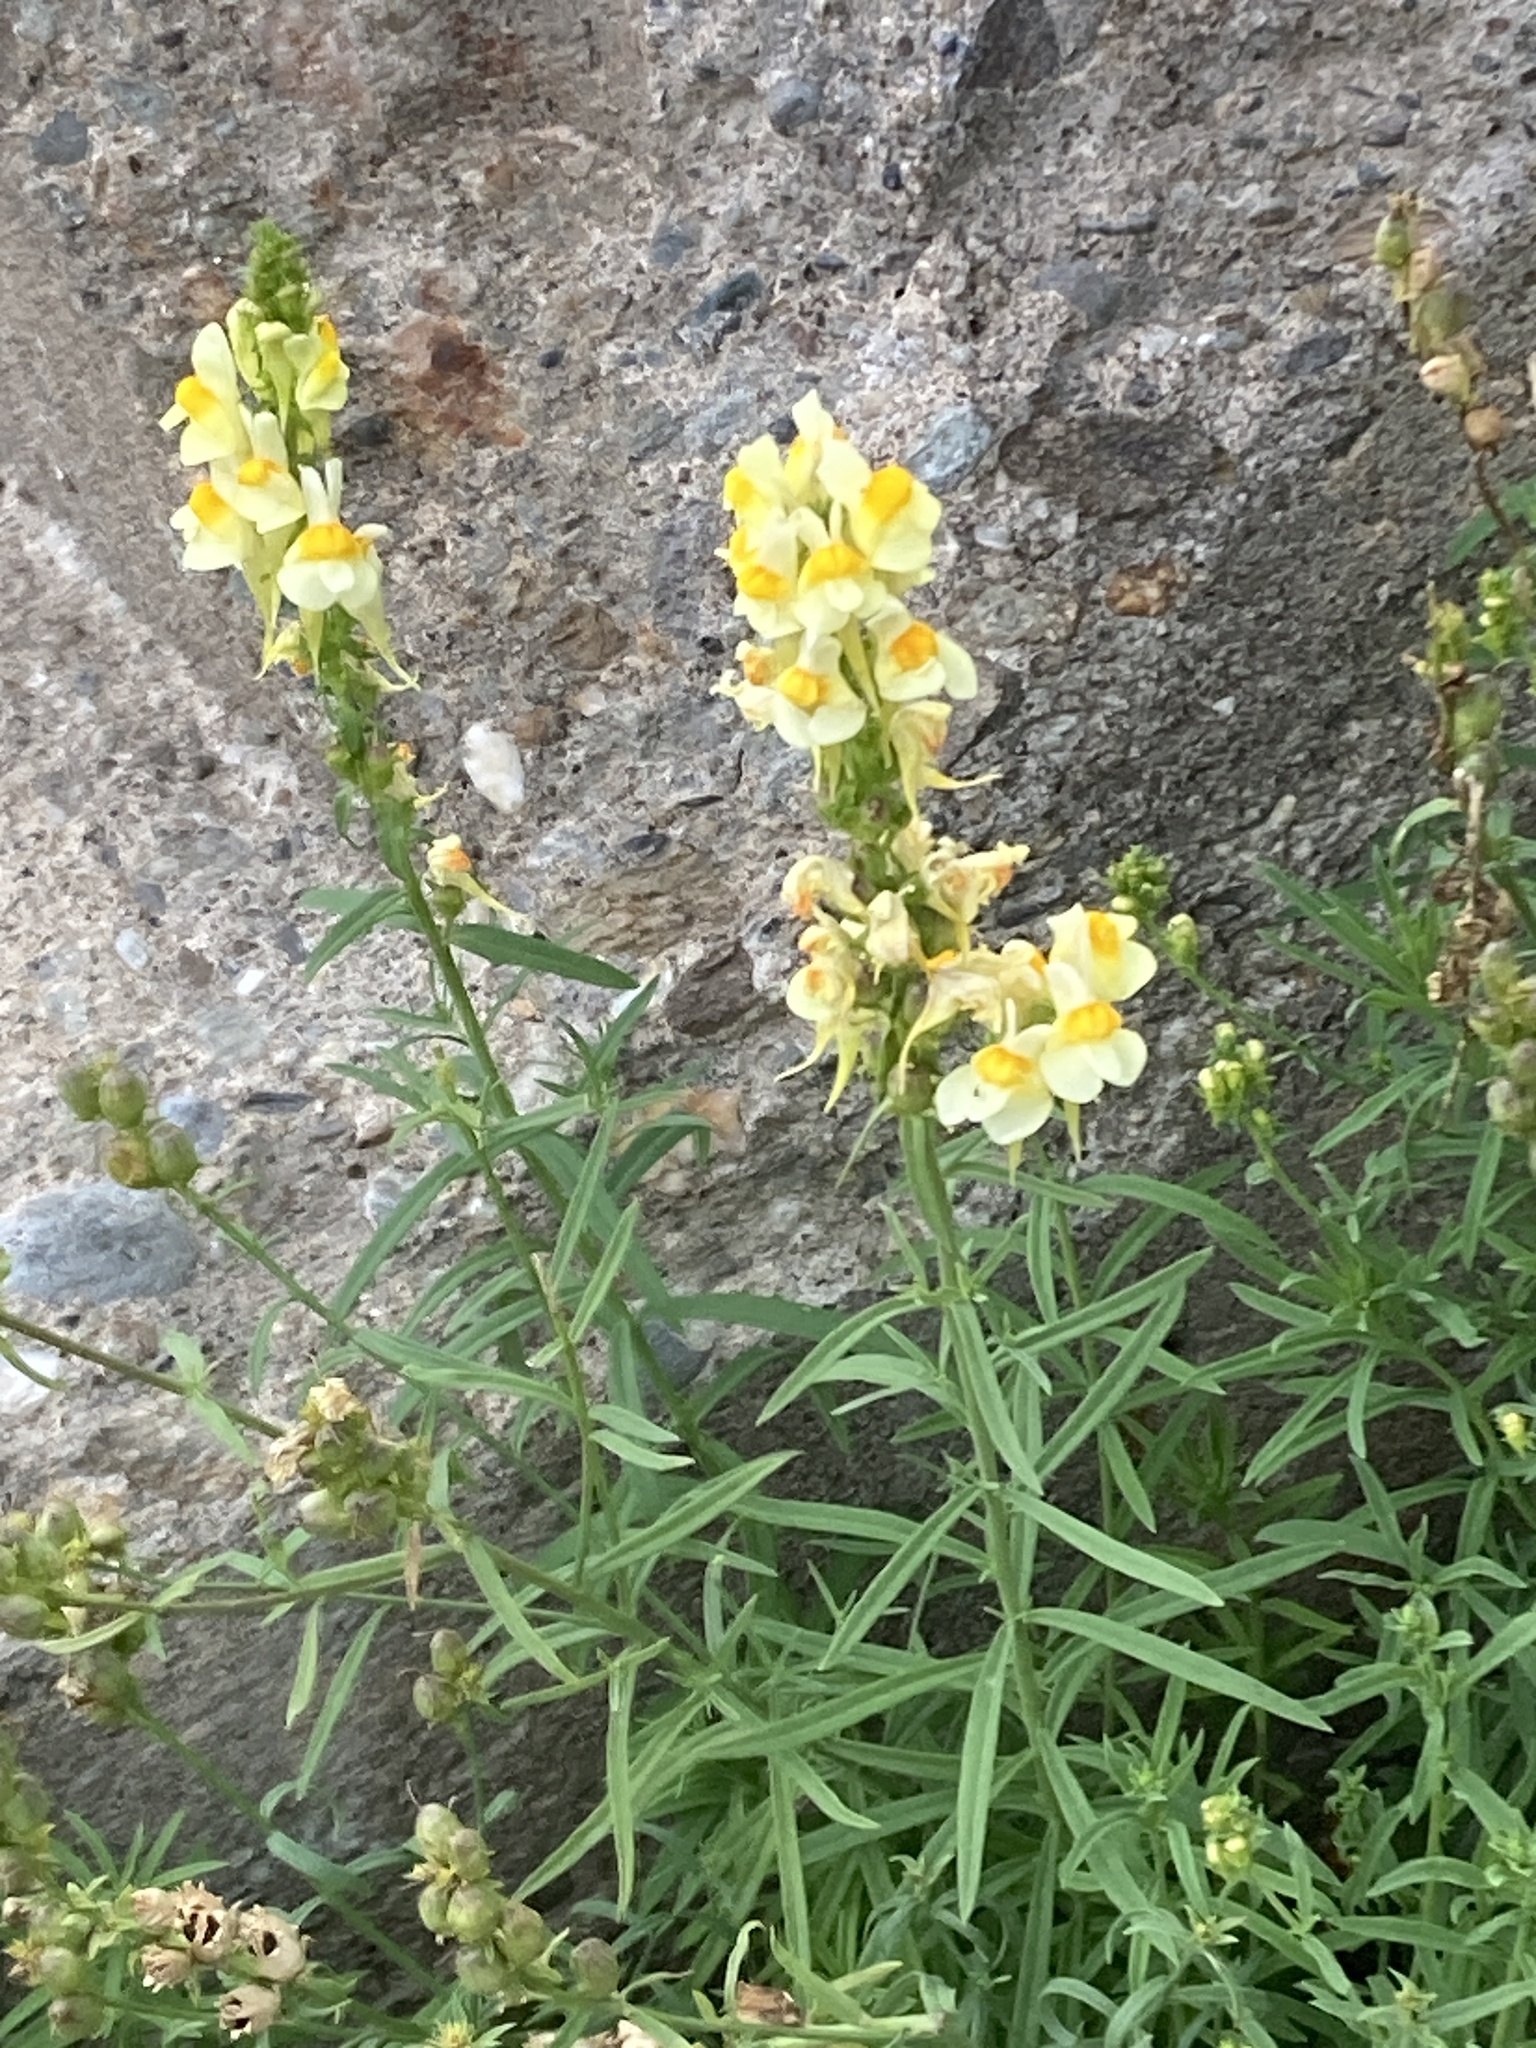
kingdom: Plantae
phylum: Tracheophyta
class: Magnoliopsida
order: Lamiales
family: Plantaginaceae
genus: Linaria
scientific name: Linaria vulgaris
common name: Butter and eggs
